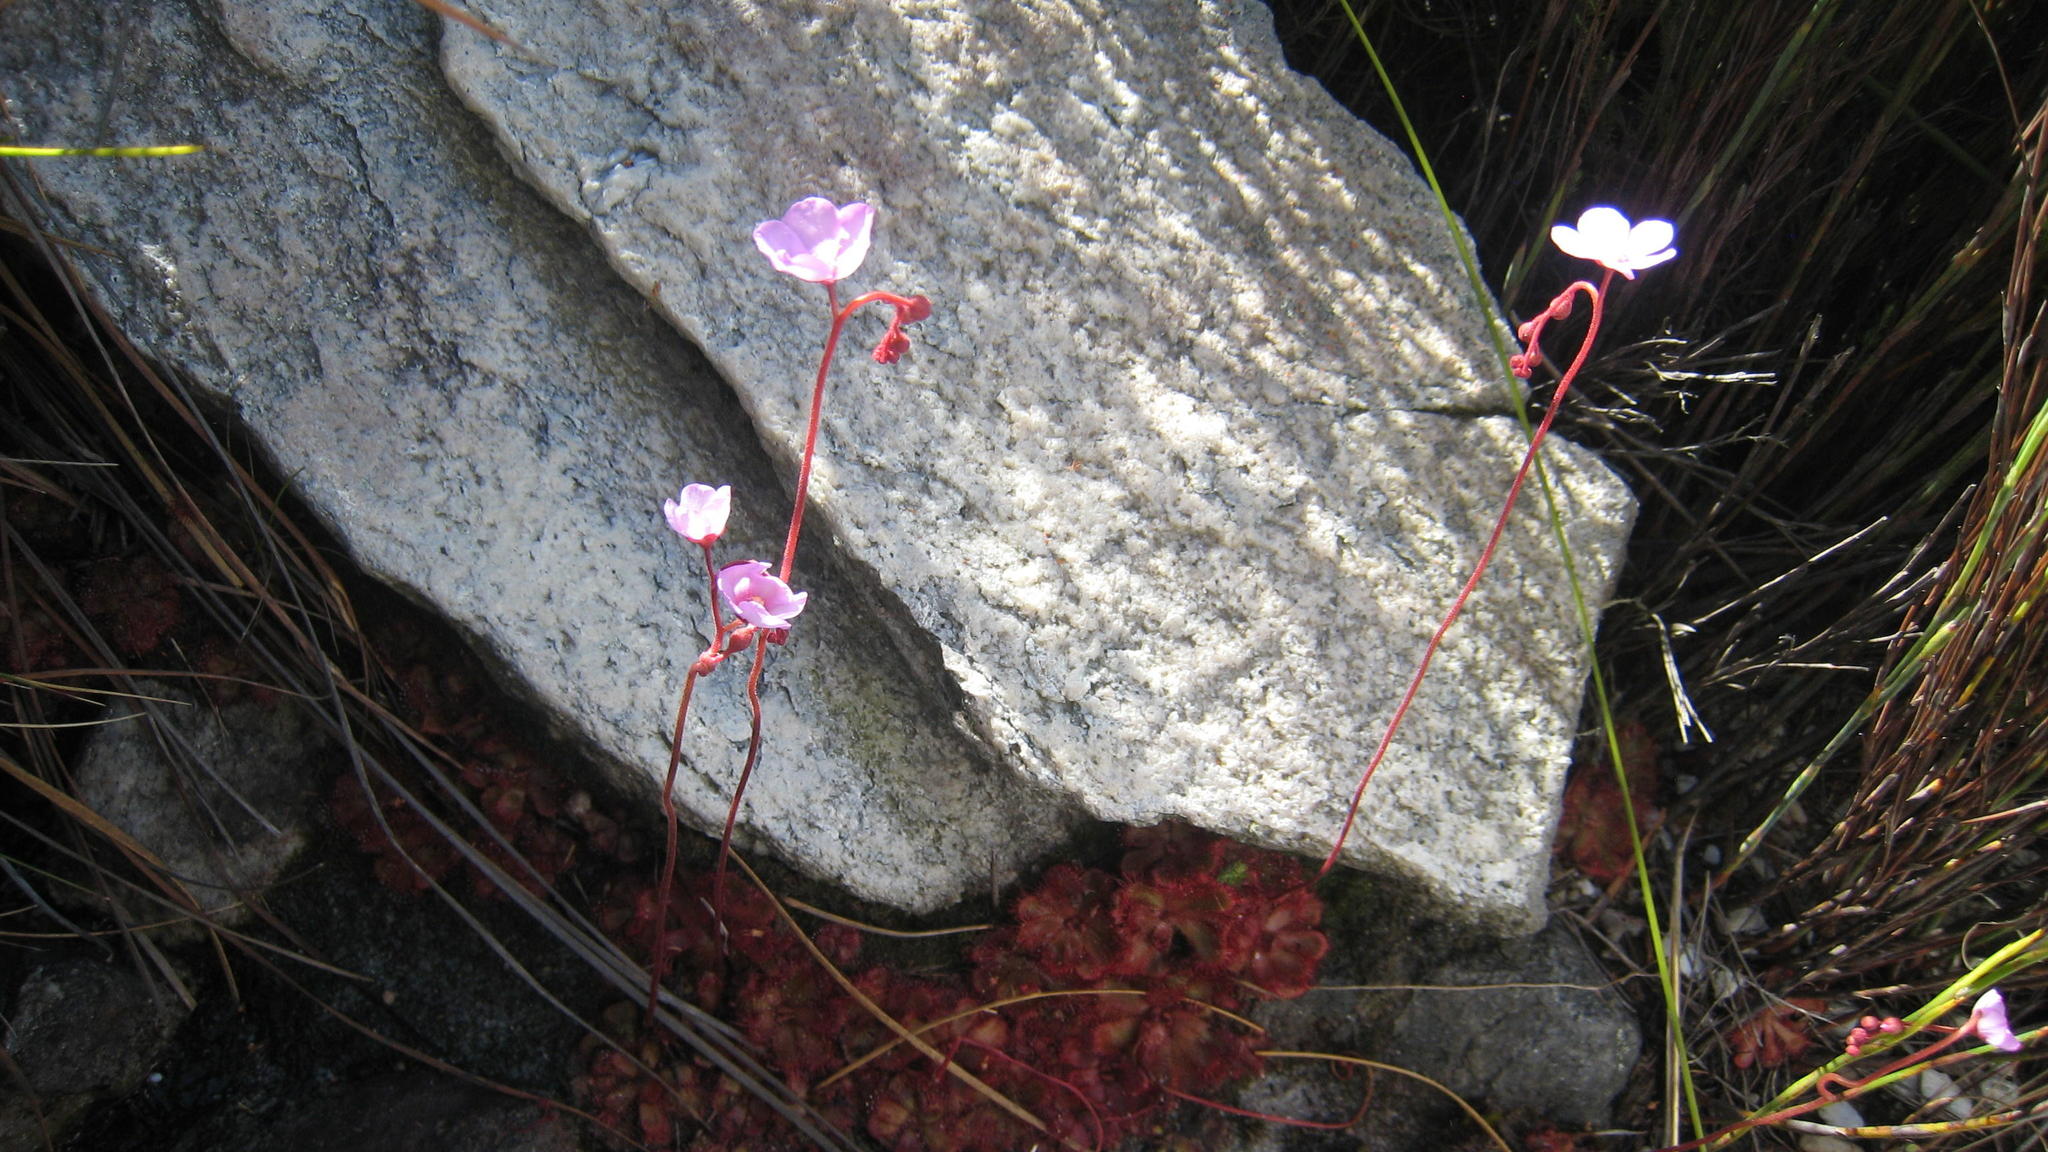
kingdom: Plantae
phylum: Tracheophyta
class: Magnoliopsida
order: Caryophyllales
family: Droseraceae
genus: Drosera
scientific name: Drosera aliciae
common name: Alice sundew
